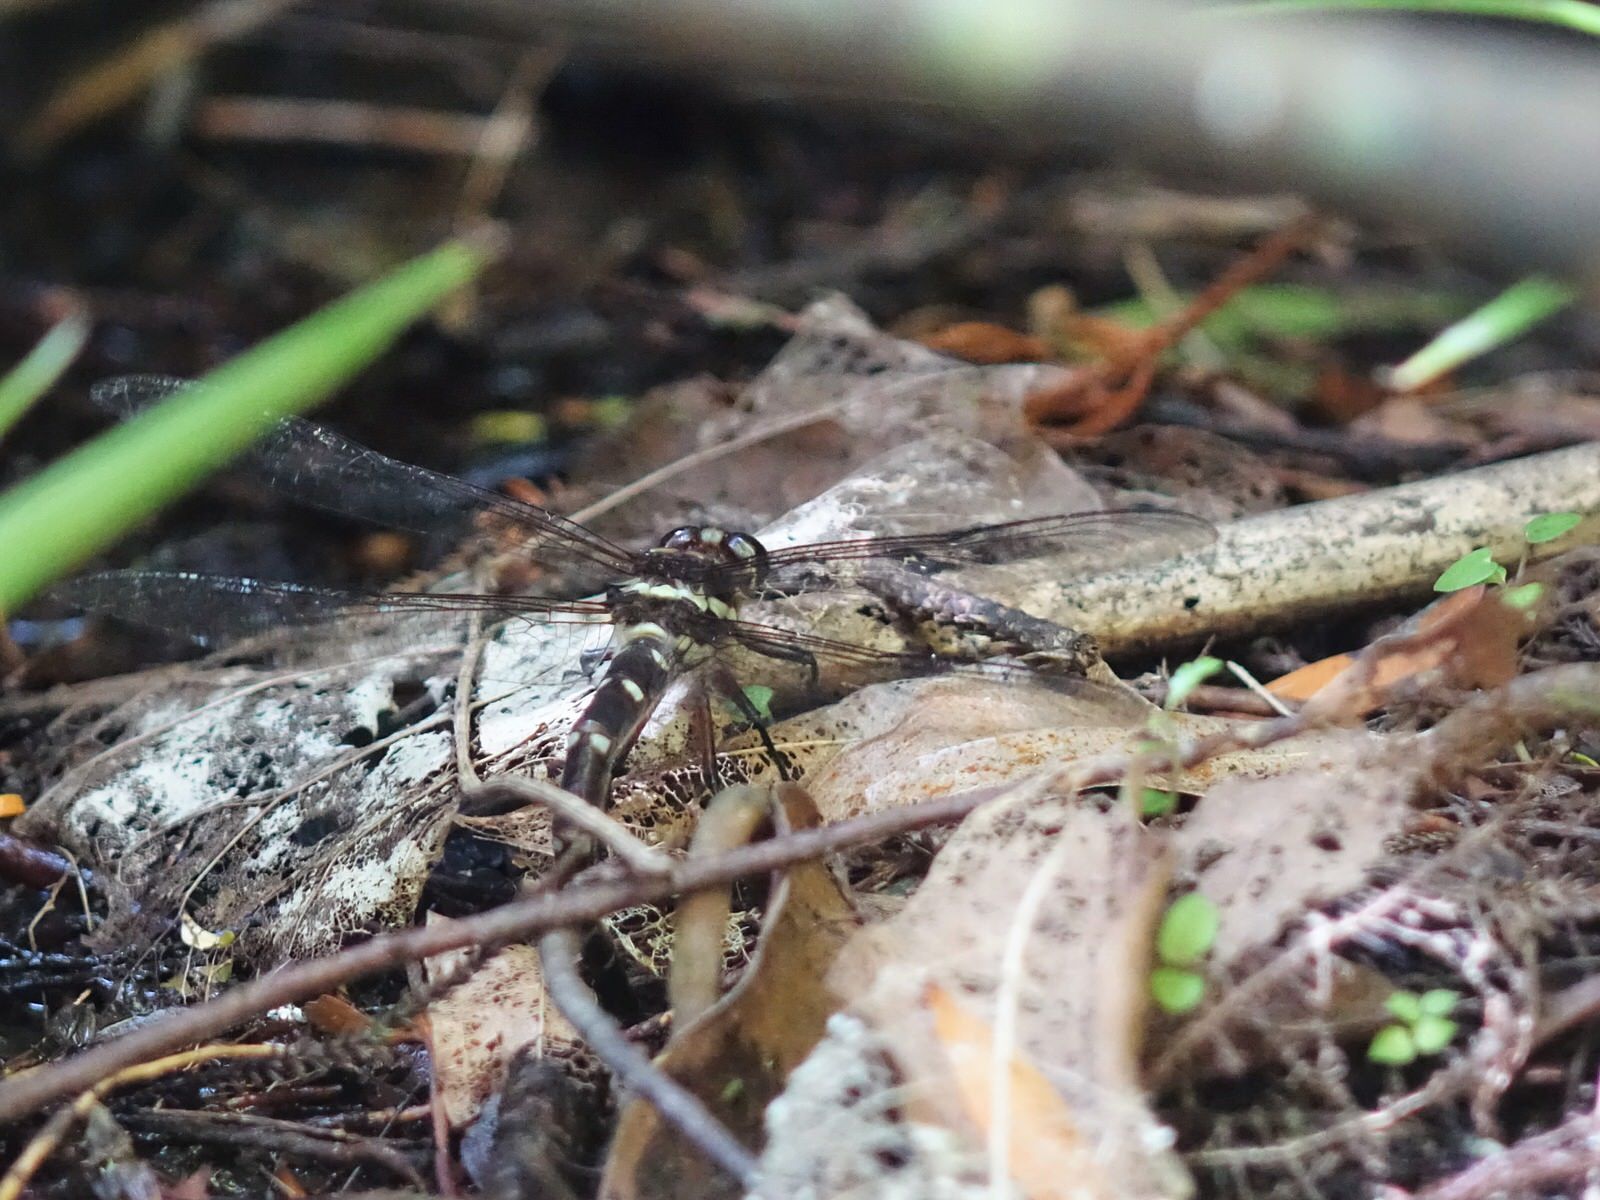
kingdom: Animalia
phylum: Arthropoda
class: Insecta
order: Odonata
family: Petaluridae
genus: Uropetala
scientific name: Uropetala carovei
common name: Bush giant dragonfly
